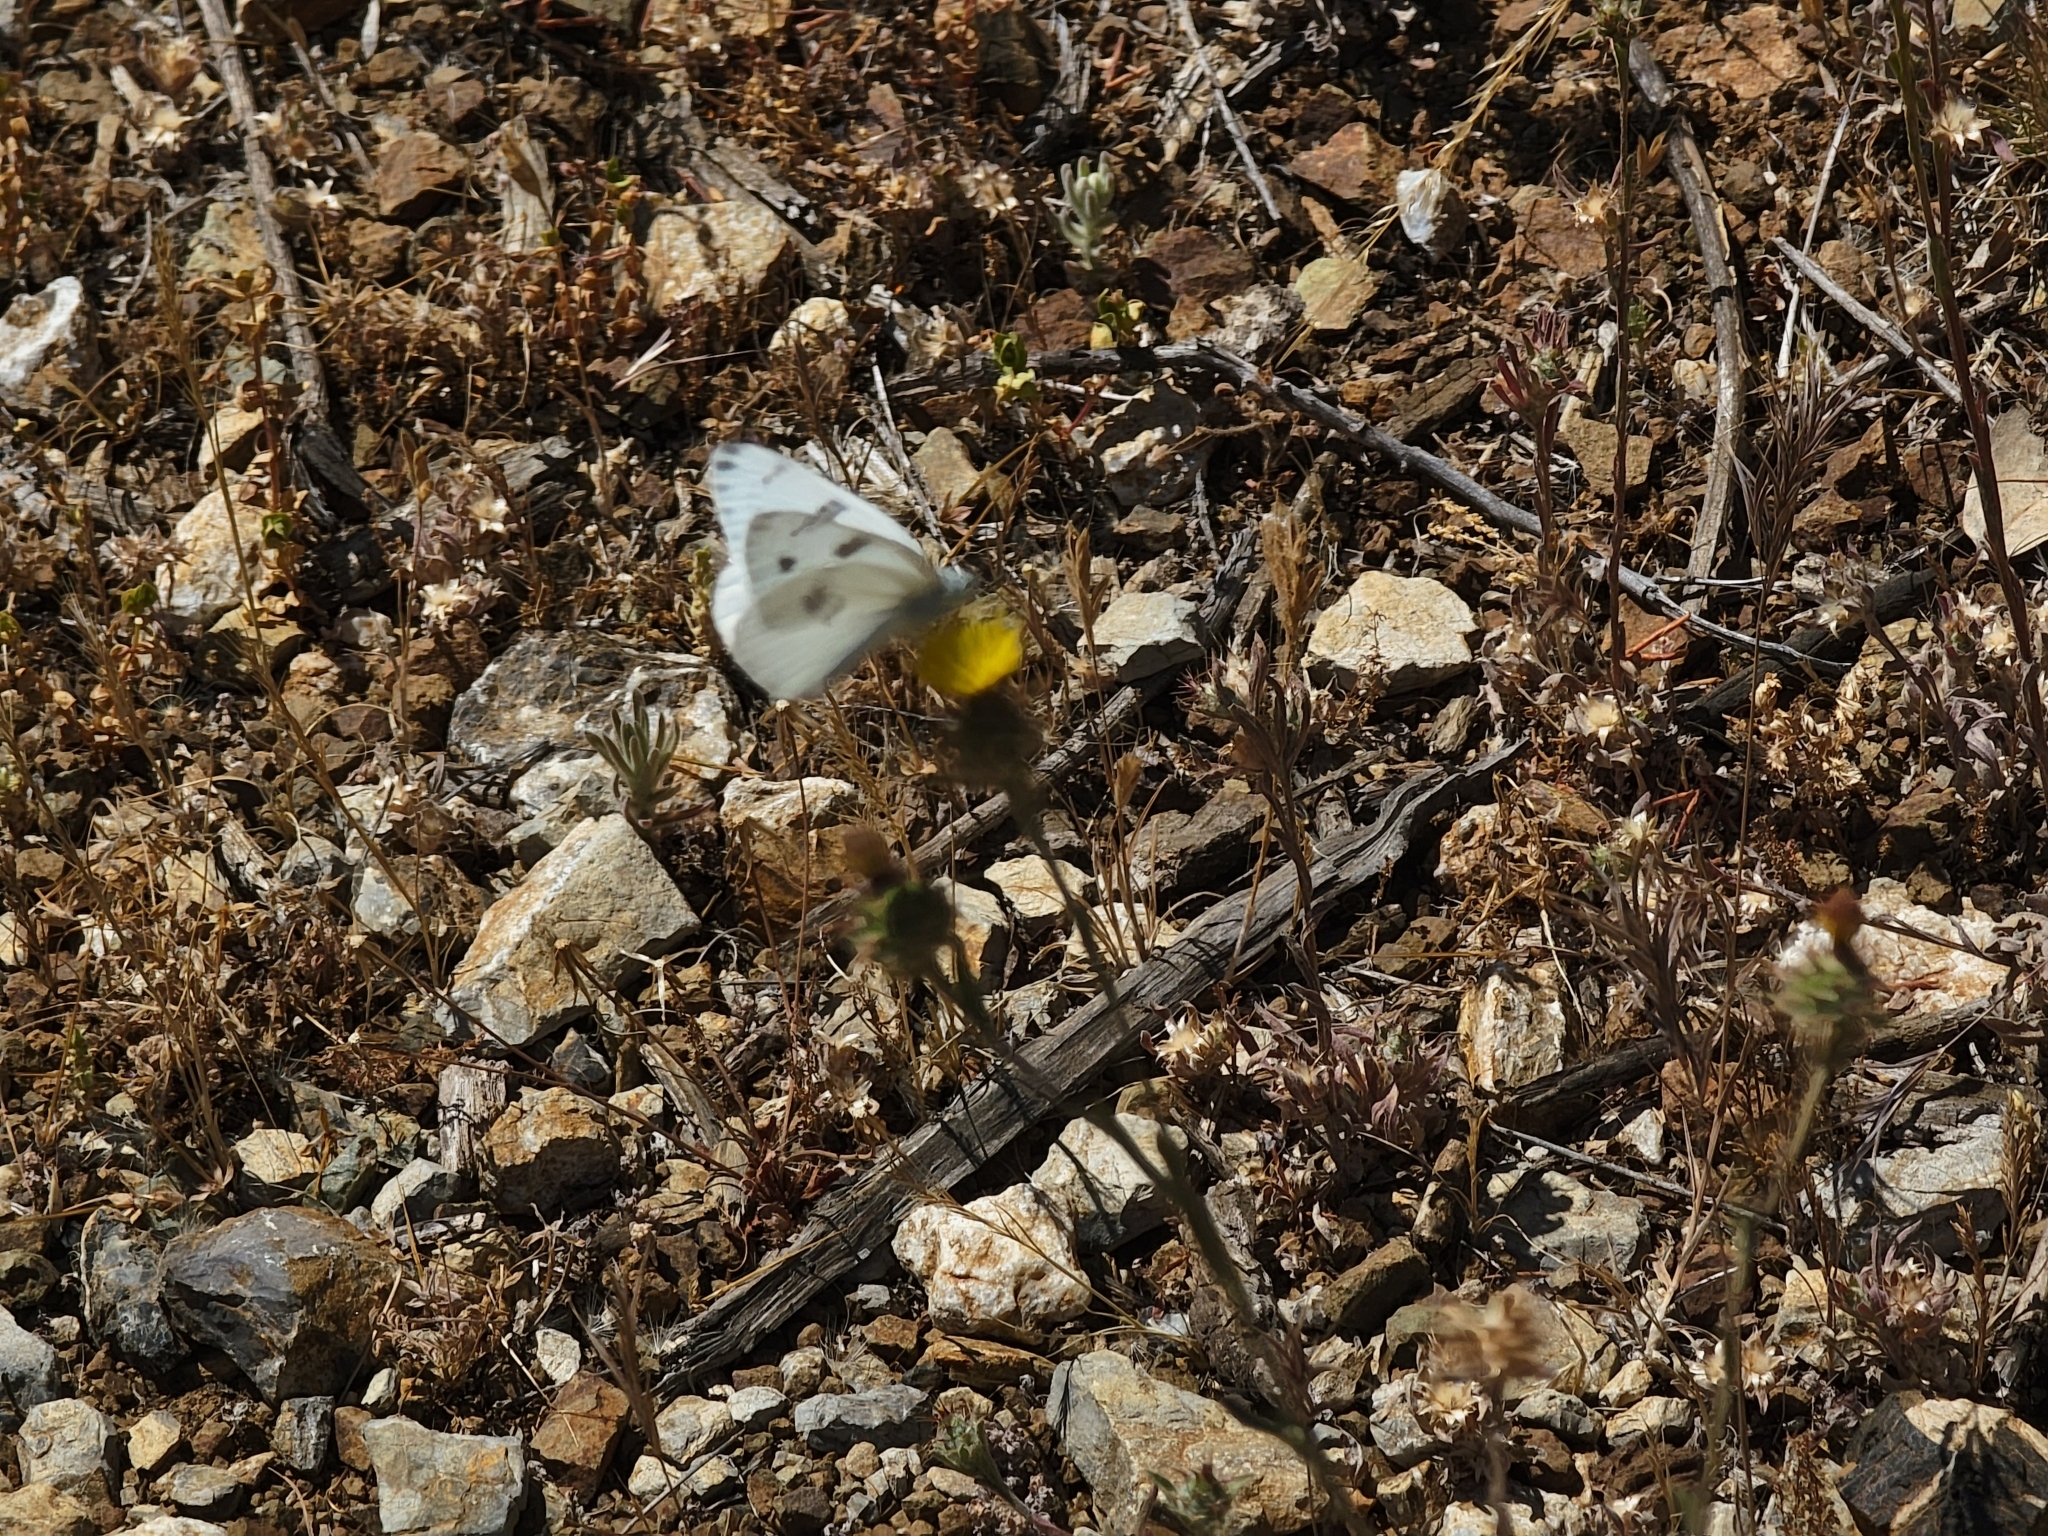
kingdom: Animalia
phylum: Arthropoda
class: Insecta
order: Lepidoptera
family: Pieridae
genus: Pontia
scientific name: Pontia protodice
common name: Checkered white
